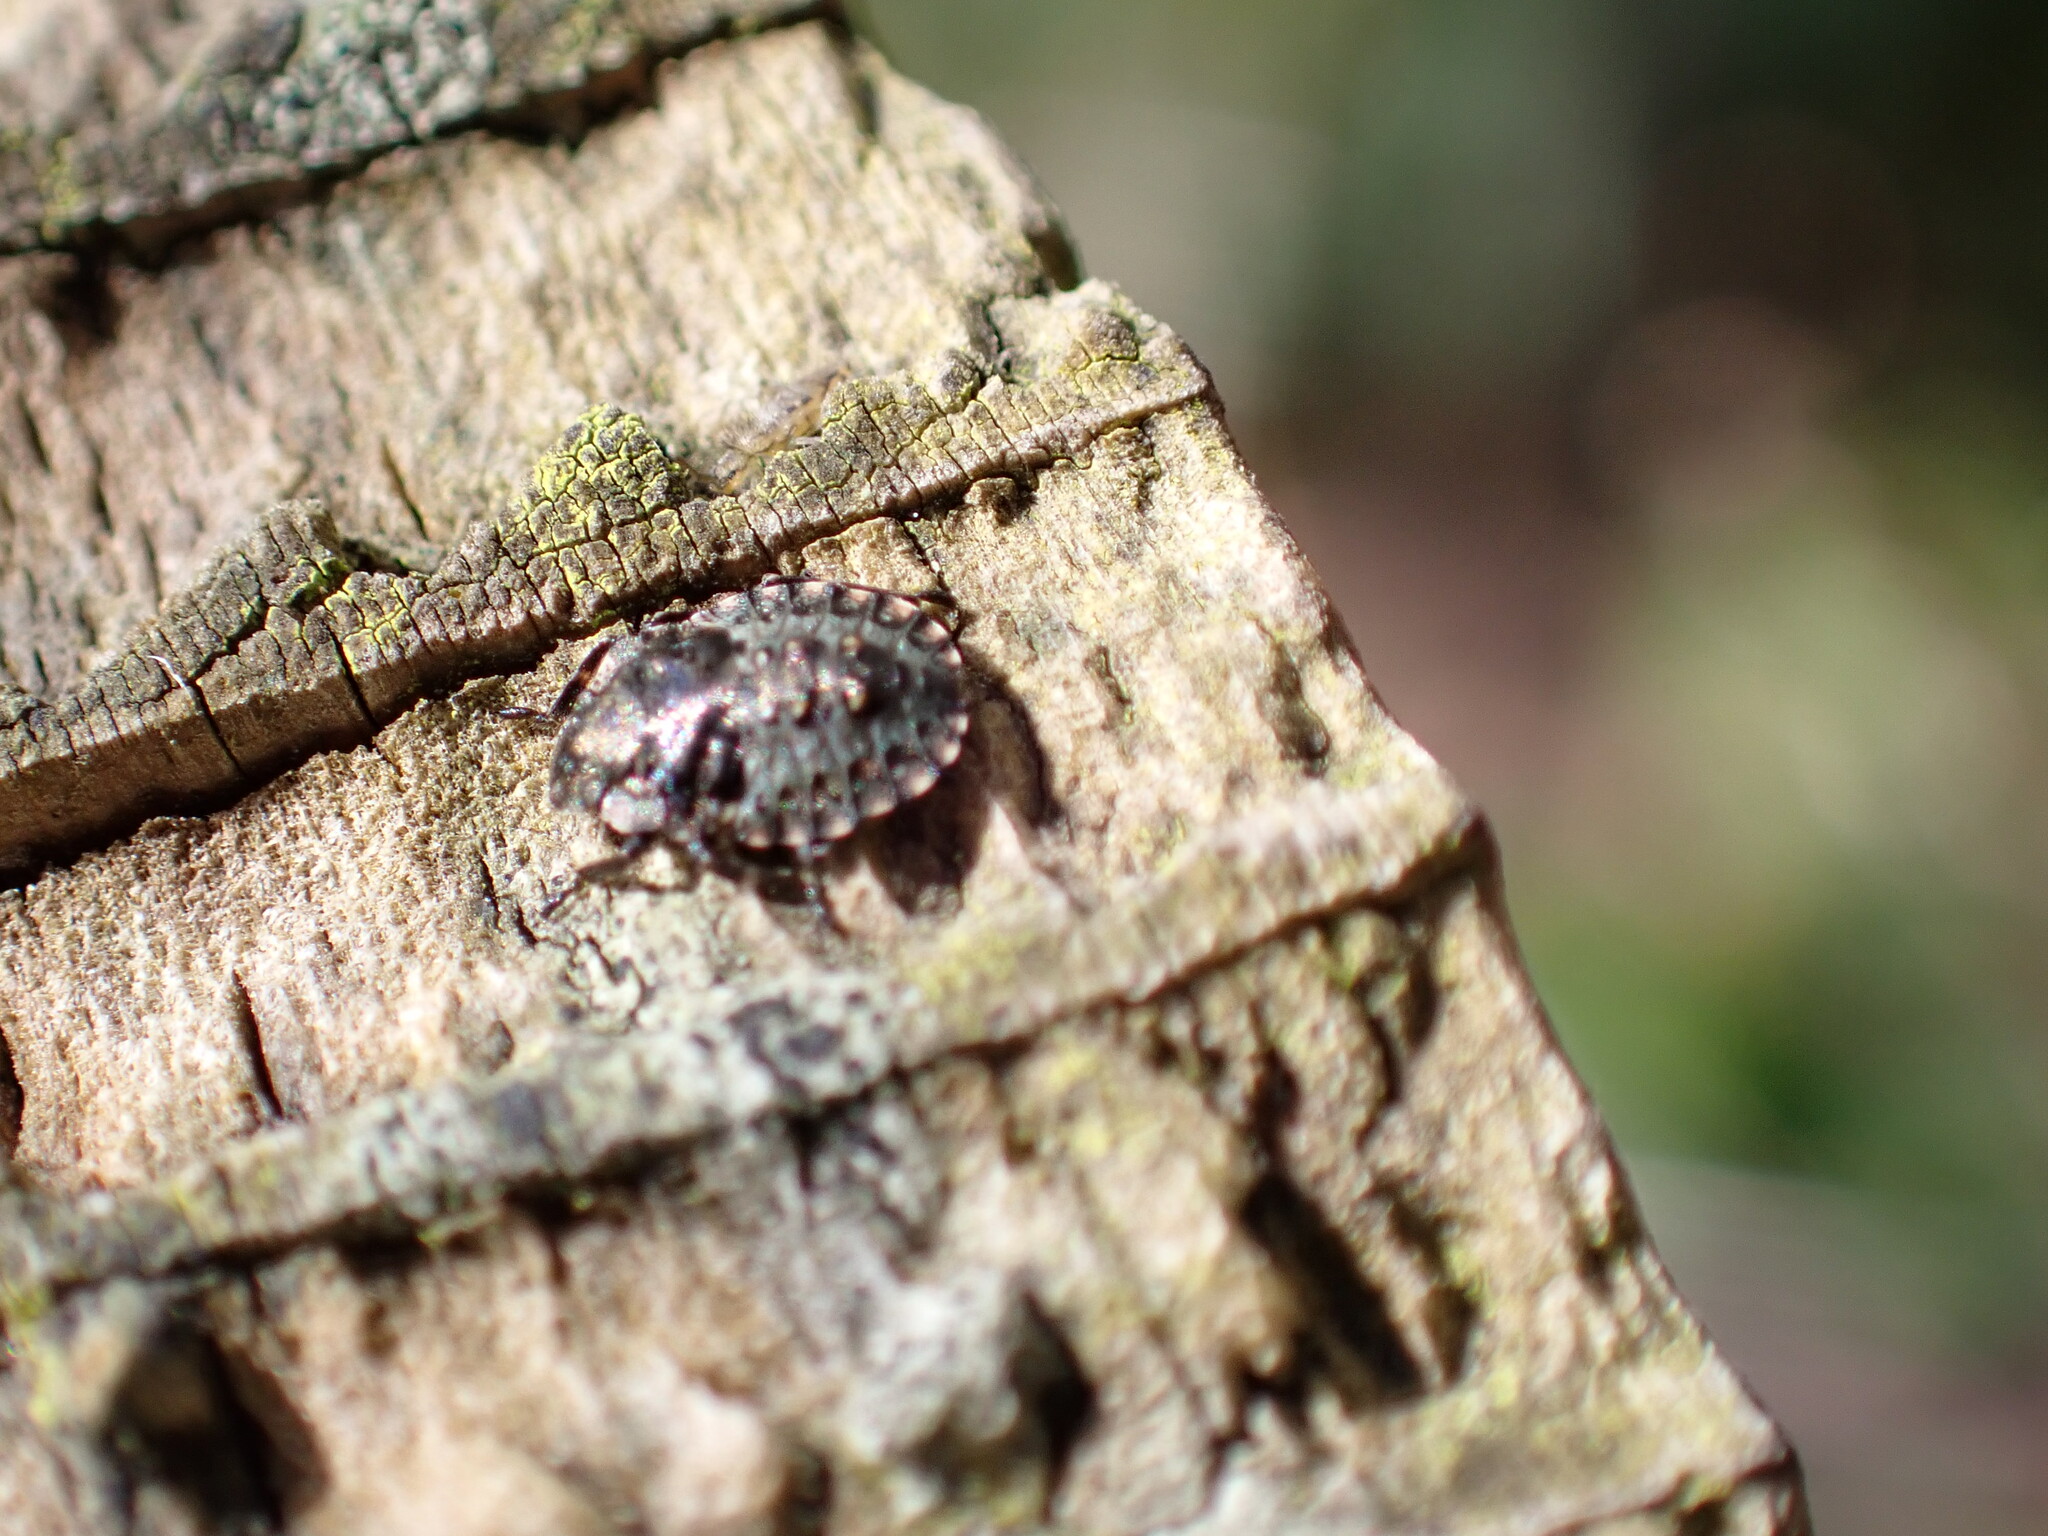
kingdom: Animalia
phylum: Arthropoda
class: Insecta
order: Hemiptera
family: Pentatomidae
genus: Pentatoma
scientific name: Pentatoma rufipes
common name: Forest bug
